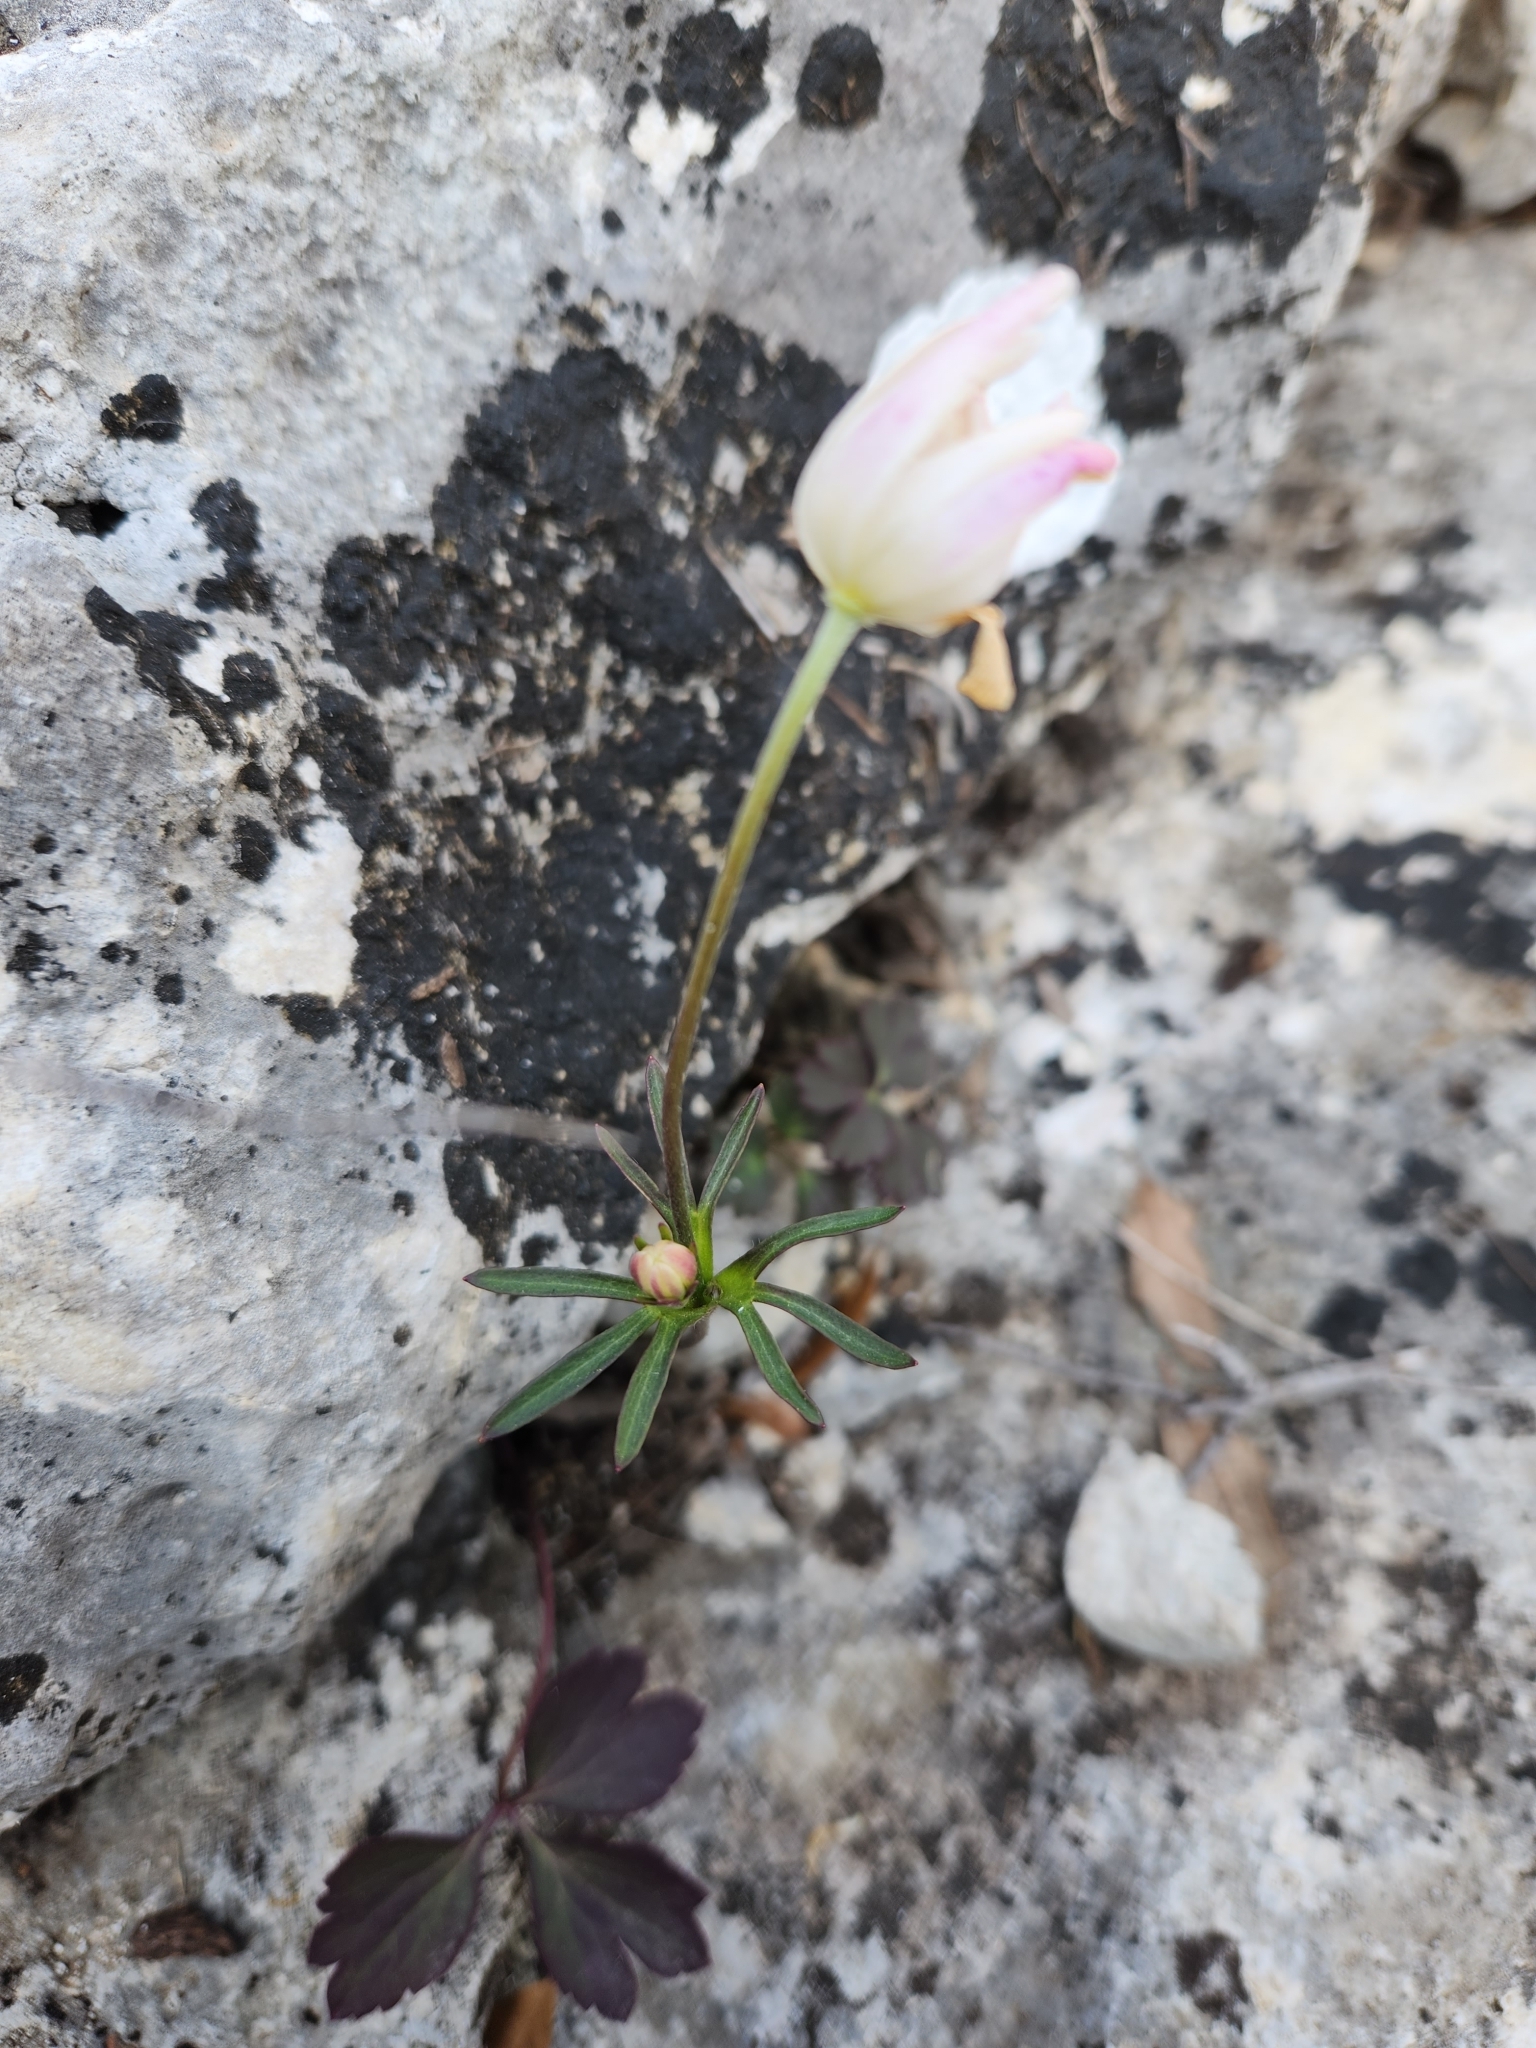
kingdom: Plantae
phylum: Tracheophyta
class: Magnoliopsida
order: Ranunculales
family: Ranunculaceae
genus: Anemone
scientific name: Anemone edwardsiana
